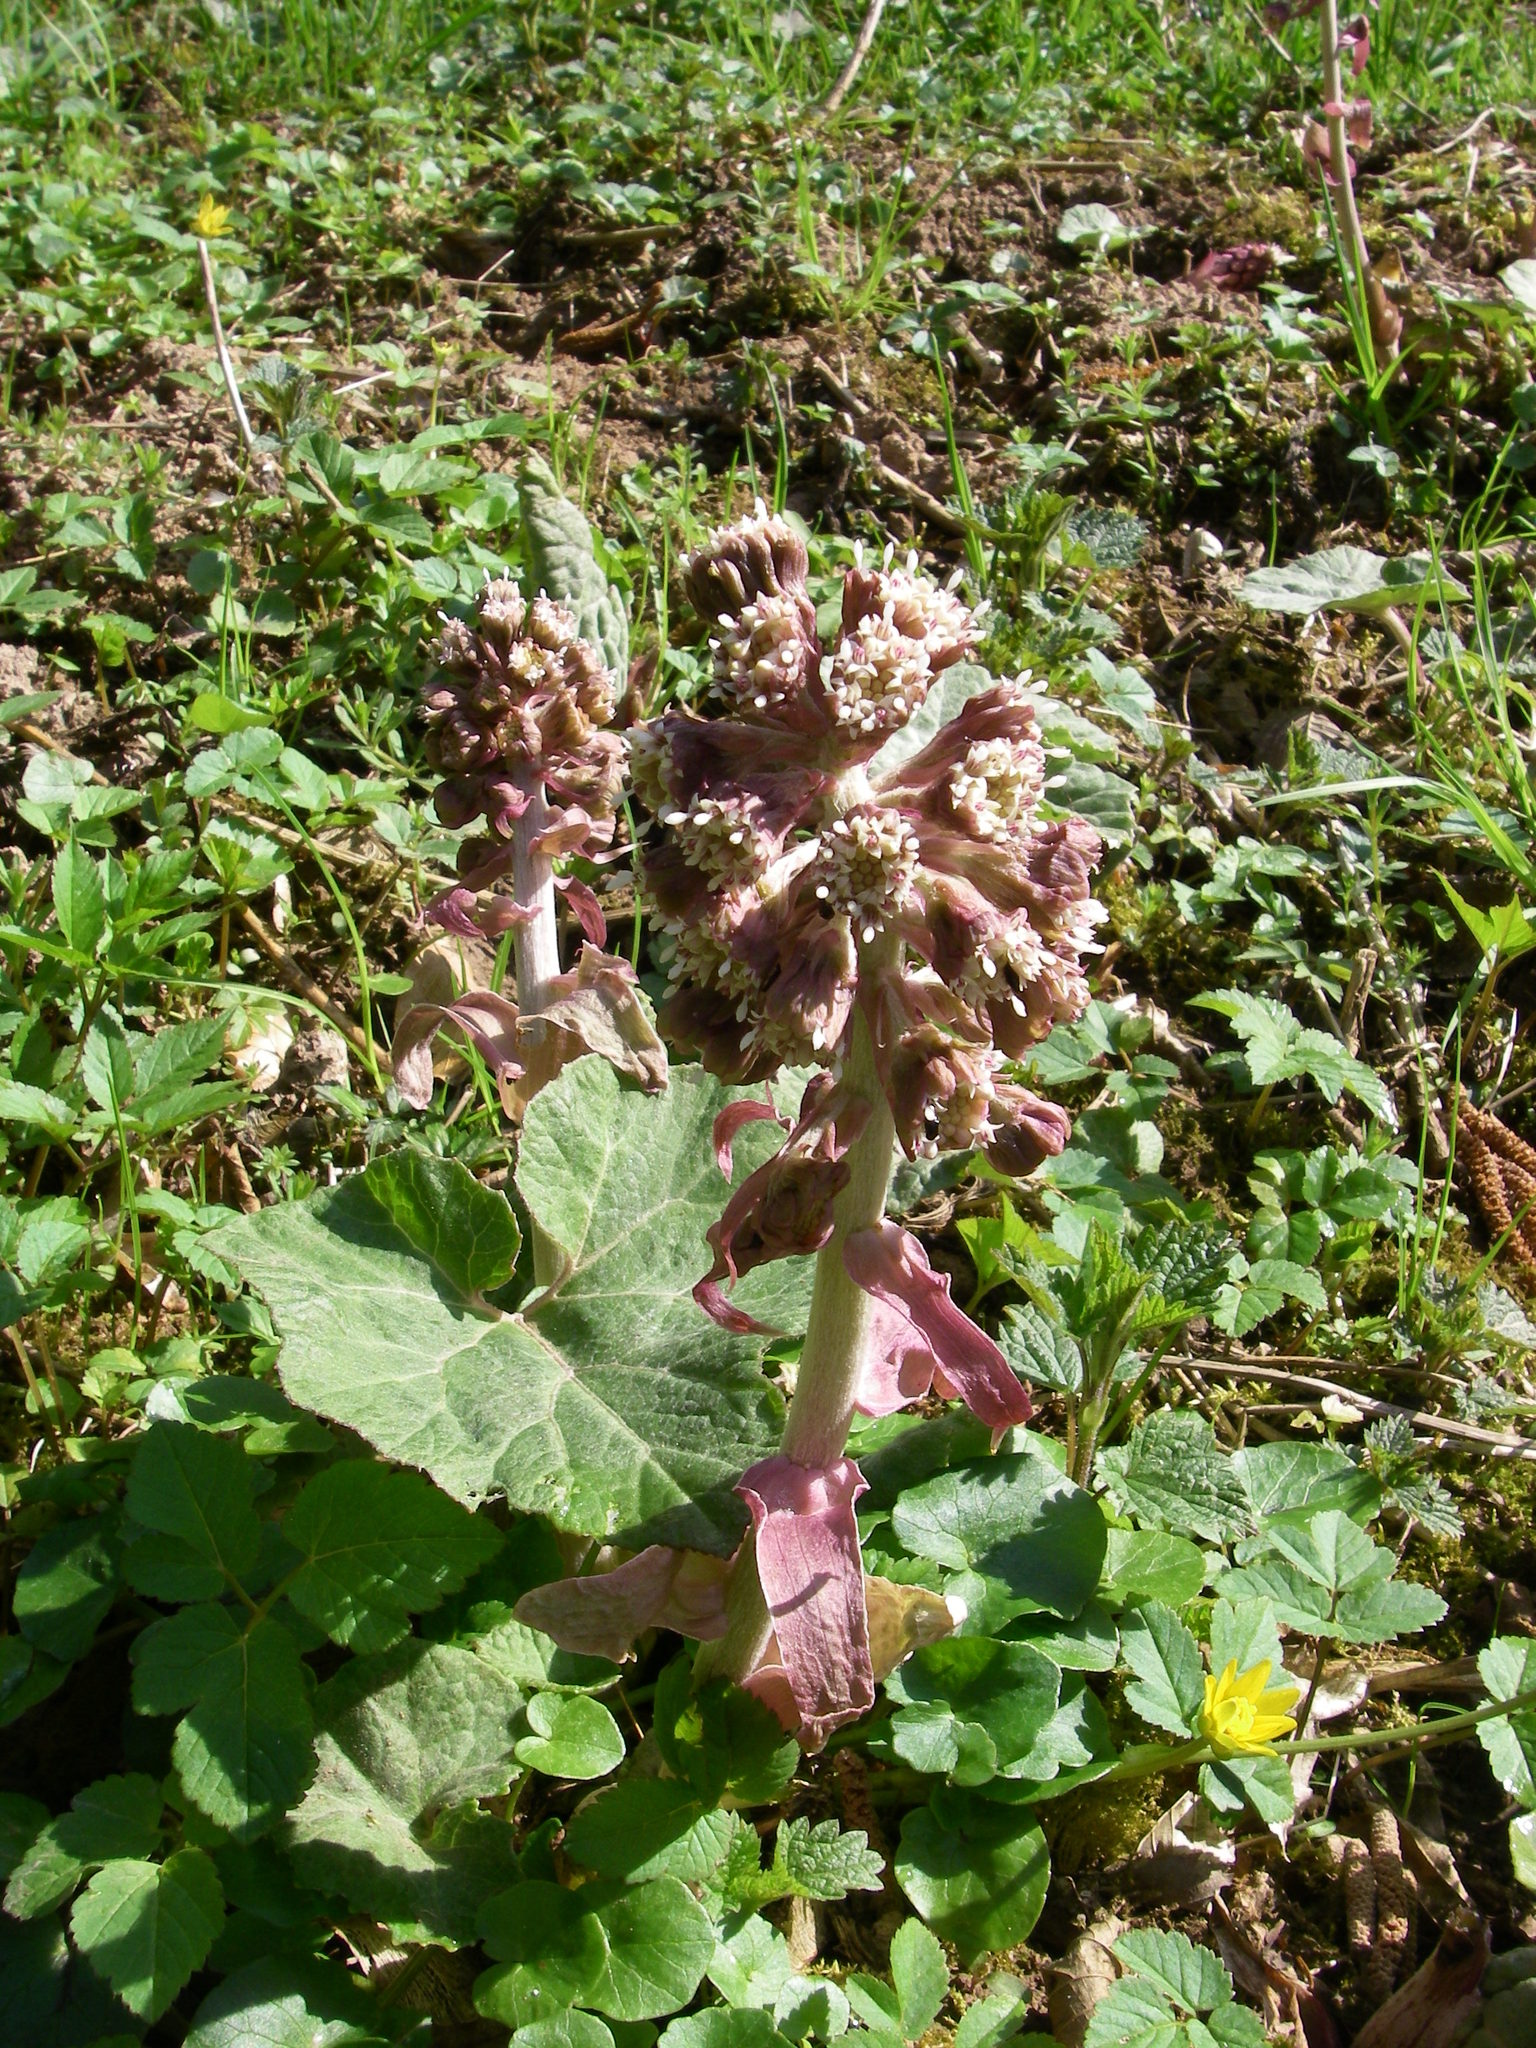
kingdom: Plantae
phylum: Tracheophyta
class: Magnoliopsida
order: Asterales
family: Asteraceae
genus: Petasites
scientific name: Petasites hybridus
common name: Butterbur
